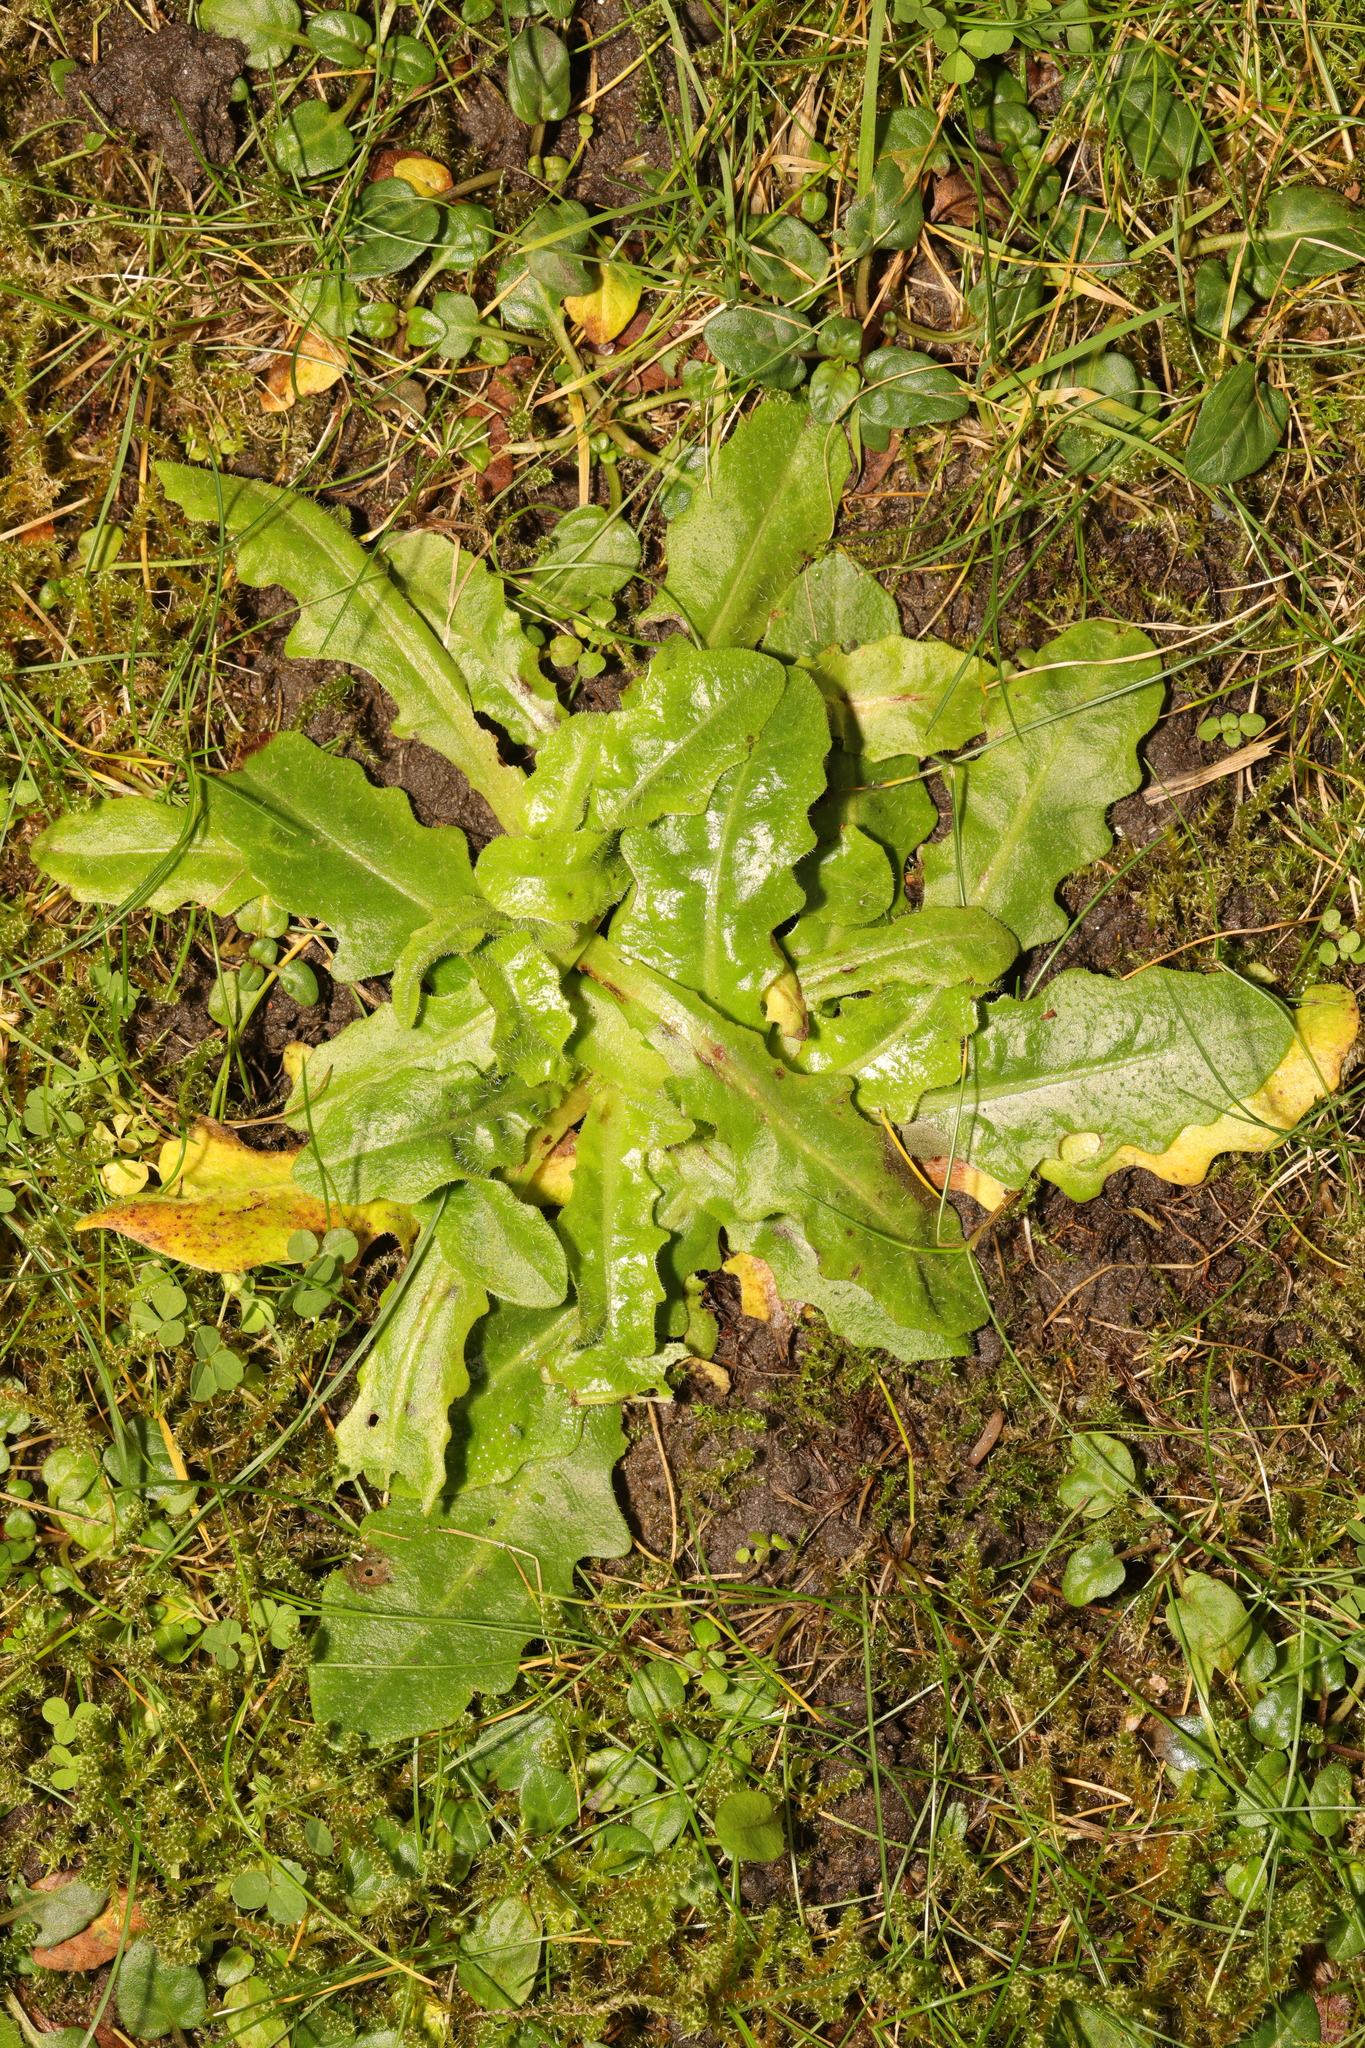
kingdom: Plantae
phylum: Tracheophyta
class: Magnoliopsida
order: Asterales
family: Asteraceae
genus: Hypochaeris
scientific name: Hypochaeris radicata
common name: Flatweed
